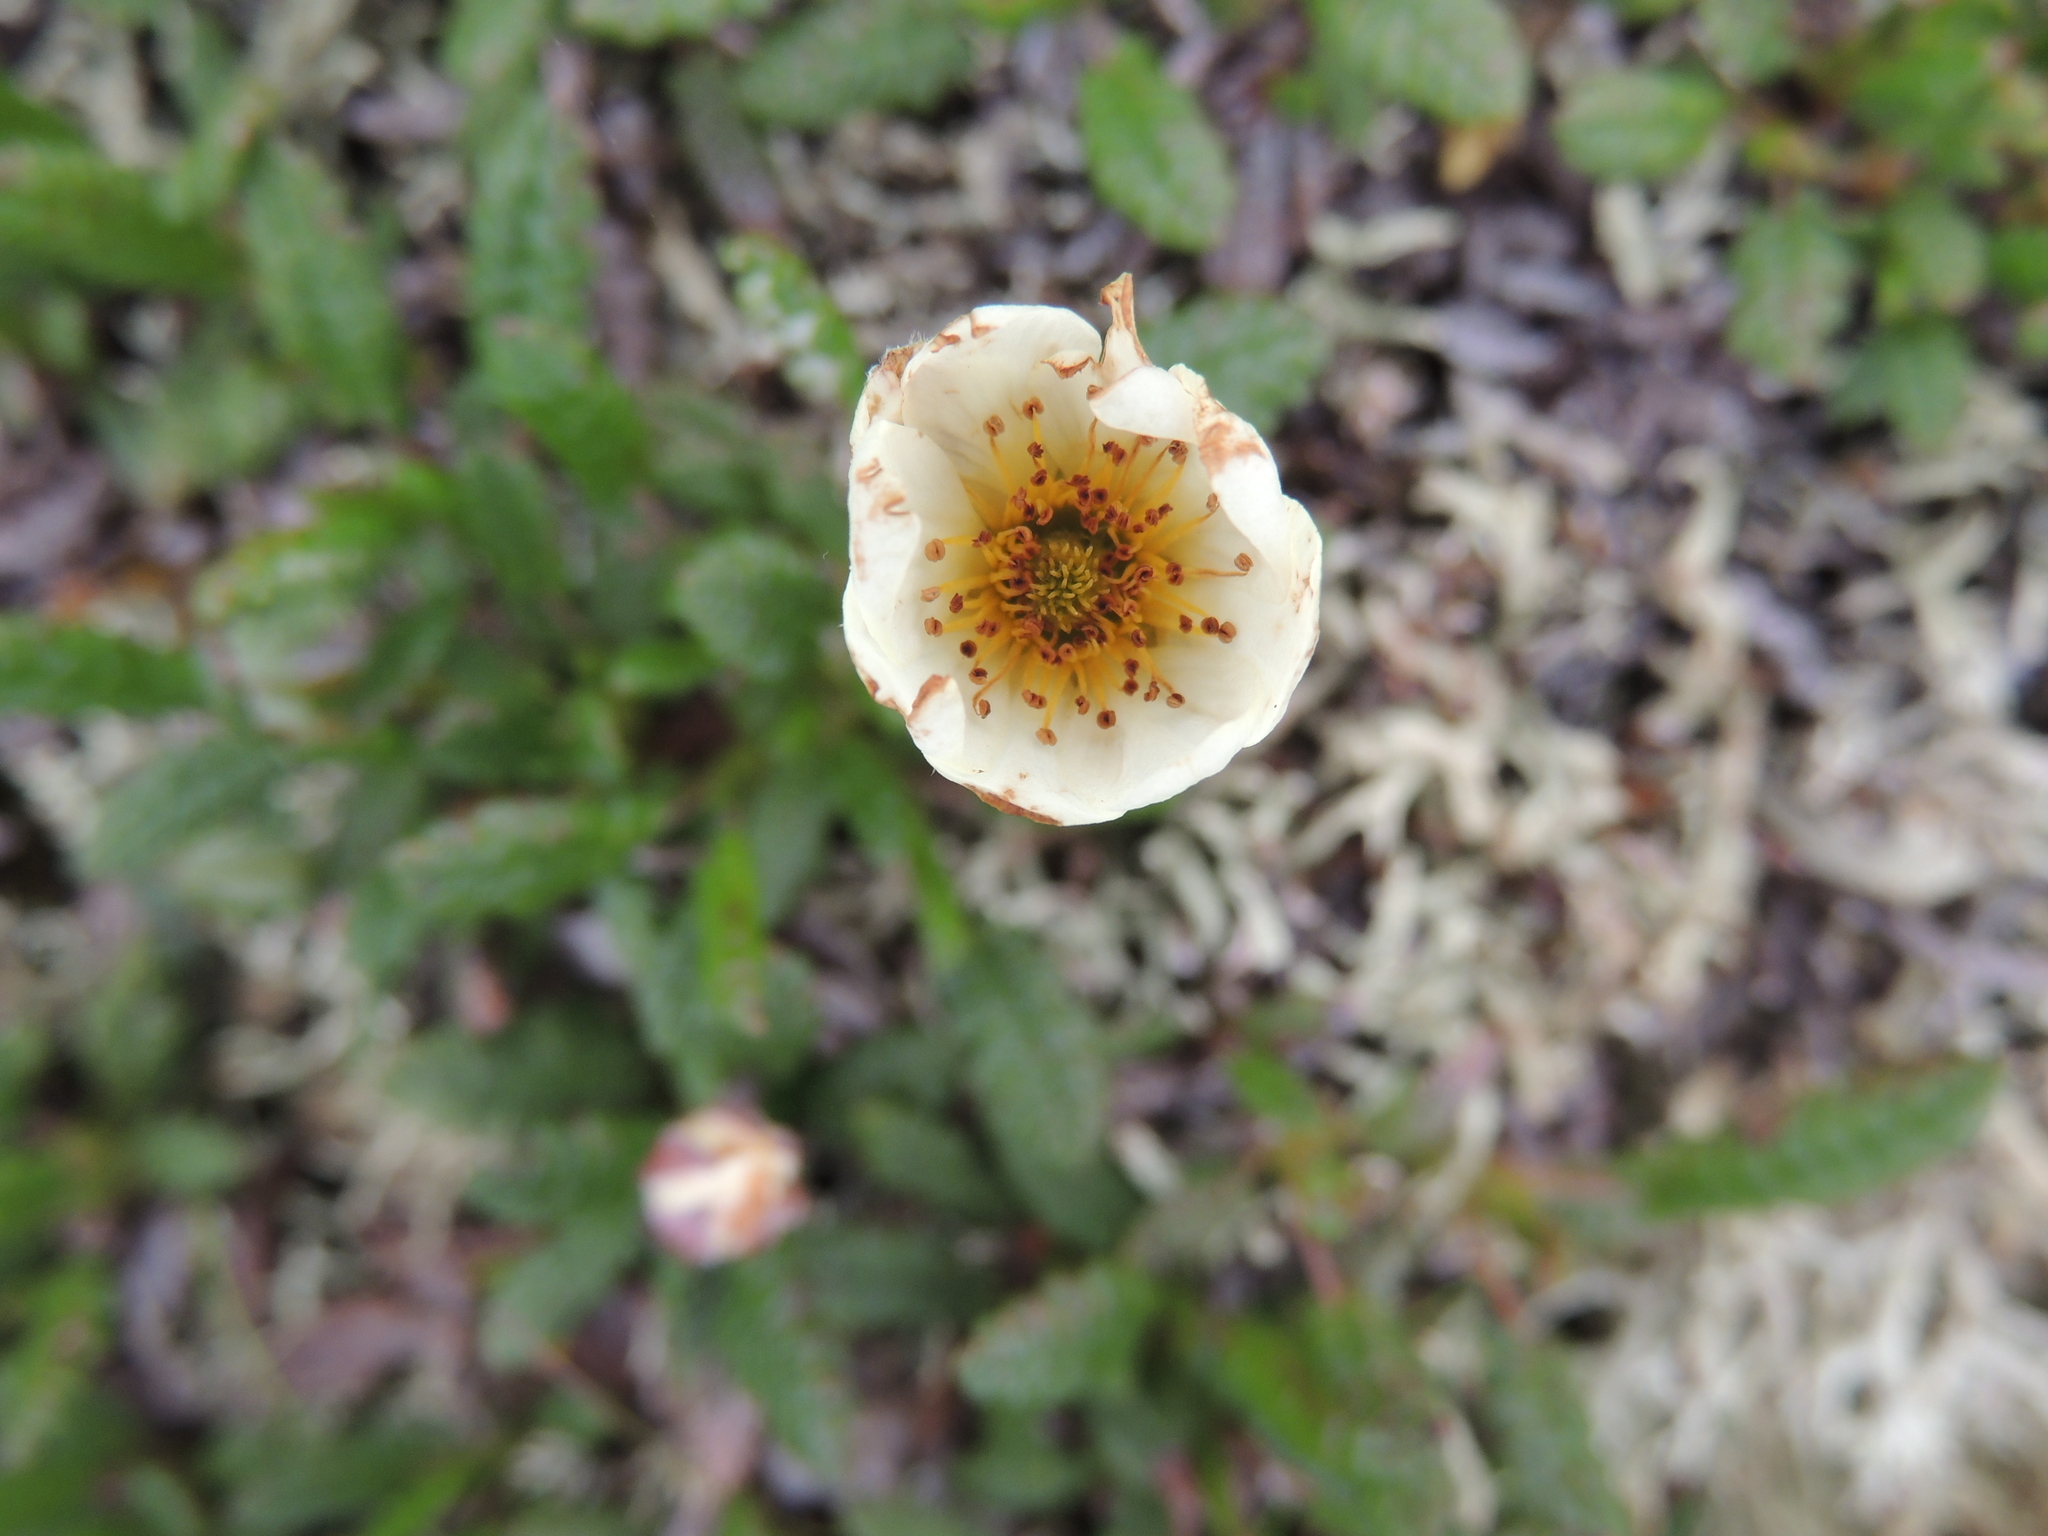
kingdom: Plantae
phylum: Tracheophyta
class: Magnoliopsida
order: Rosales
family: Rosaceae
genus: Dryas
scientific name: Dryas octopetala
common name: Eight-petal mountain-avens
